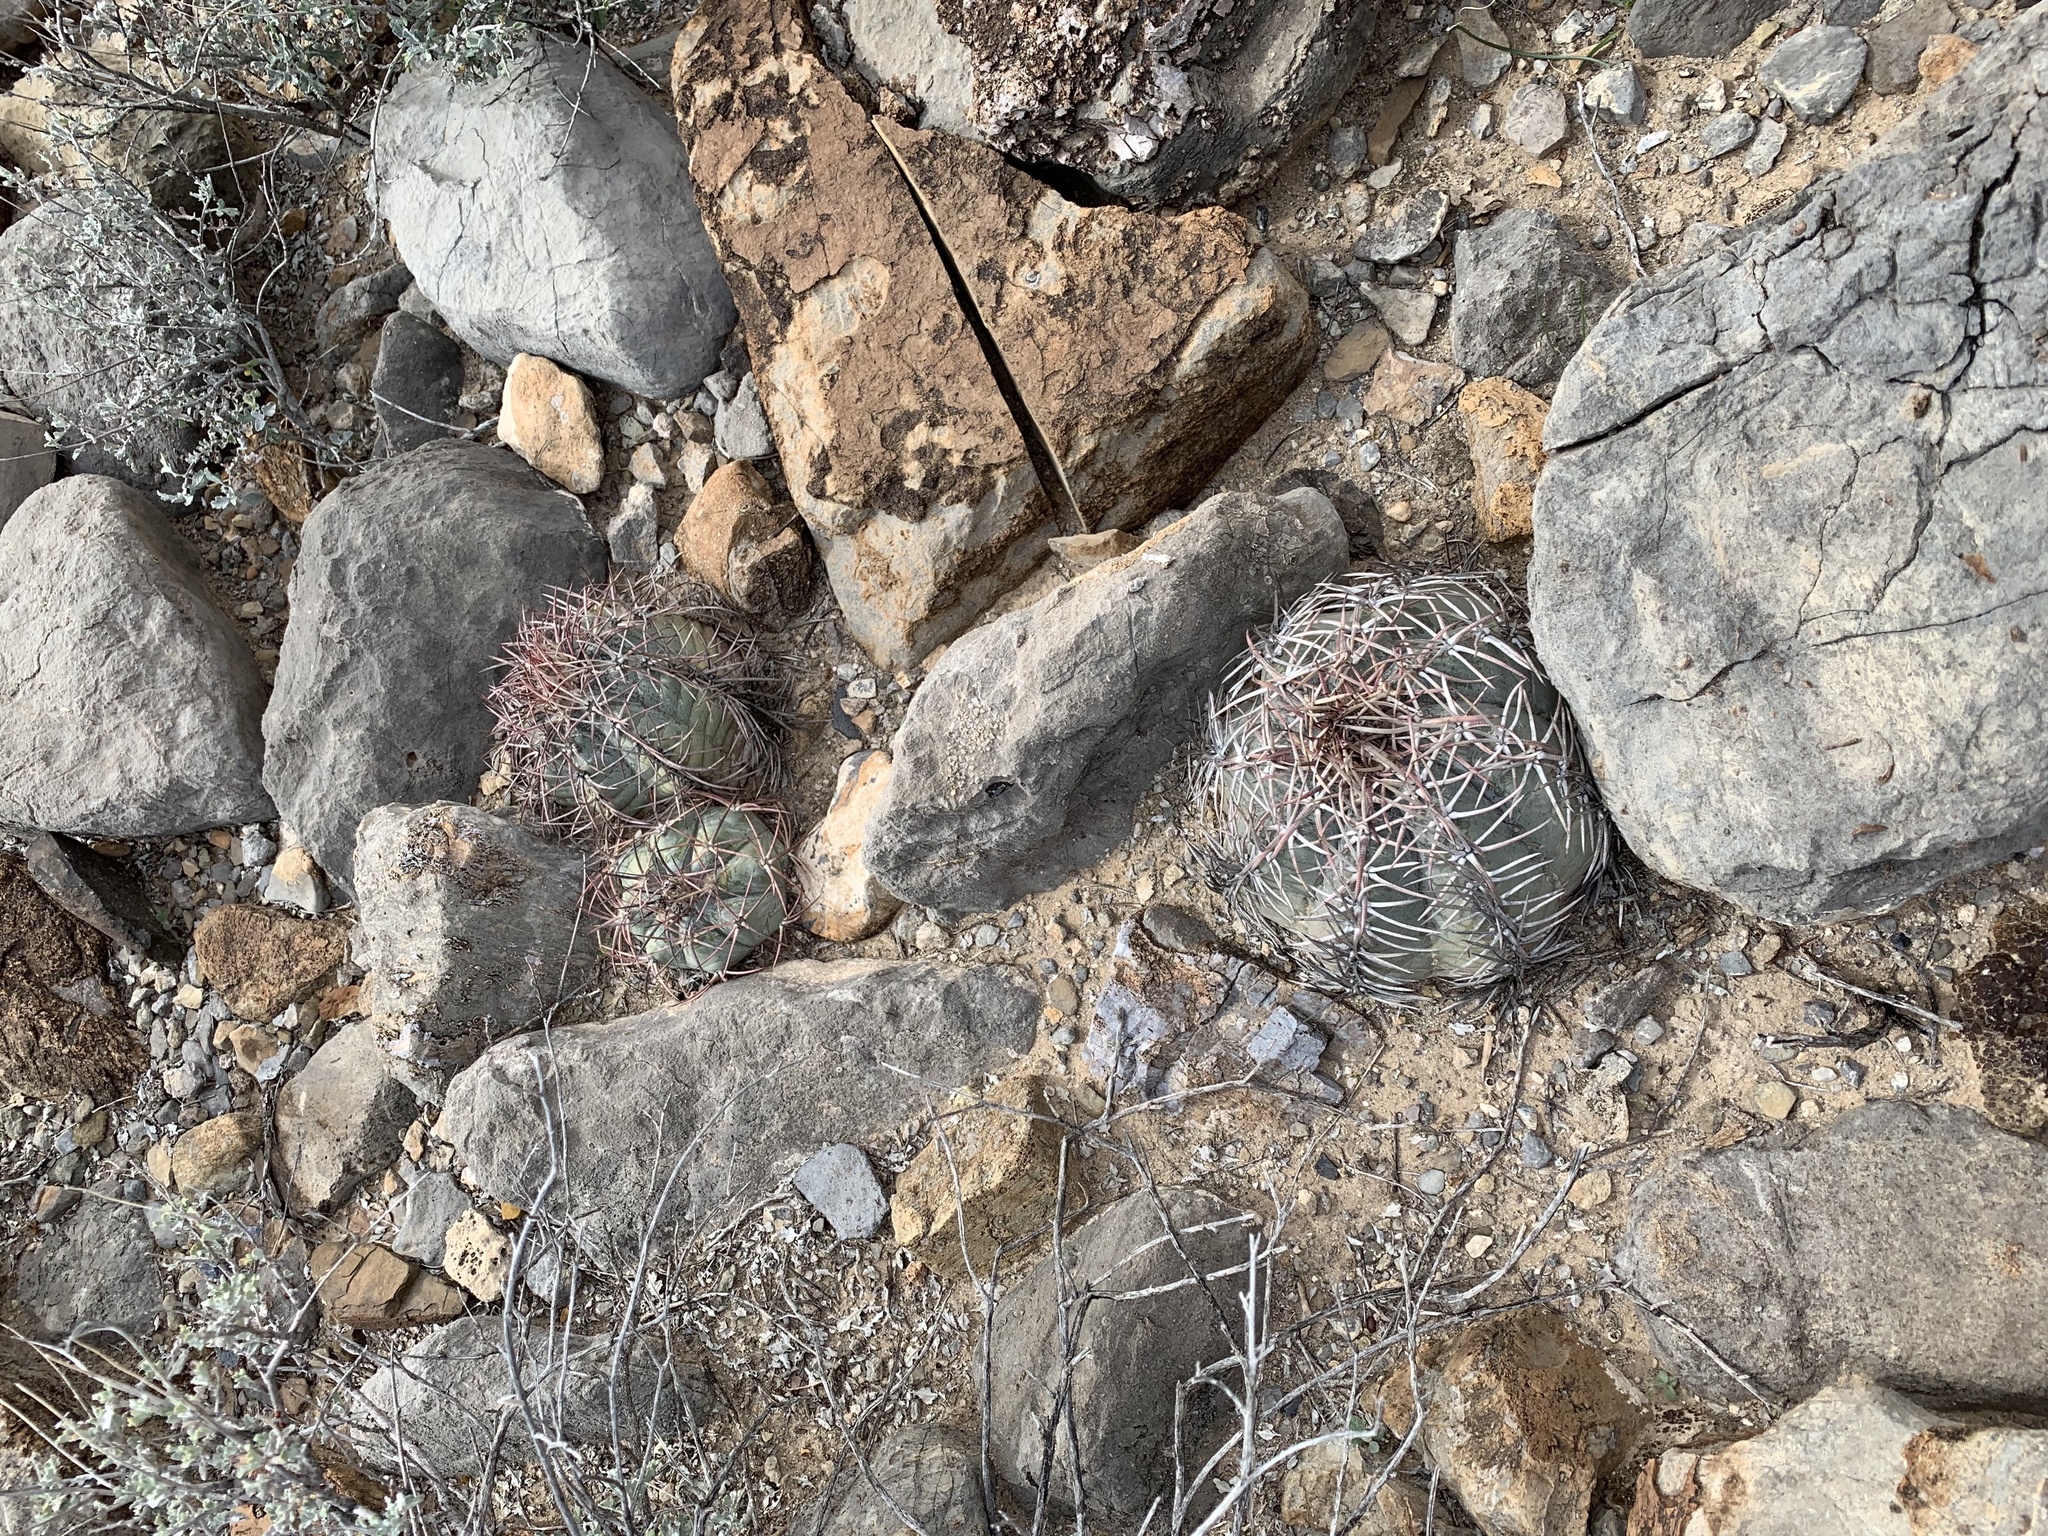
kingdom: Plantae
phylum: Tracheophyta
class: Magnoliopsida
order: Caryophyllales
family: Cactaceae
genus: Echinocactus
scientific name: Echinocactus horizonthalonius
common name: Devilshead
